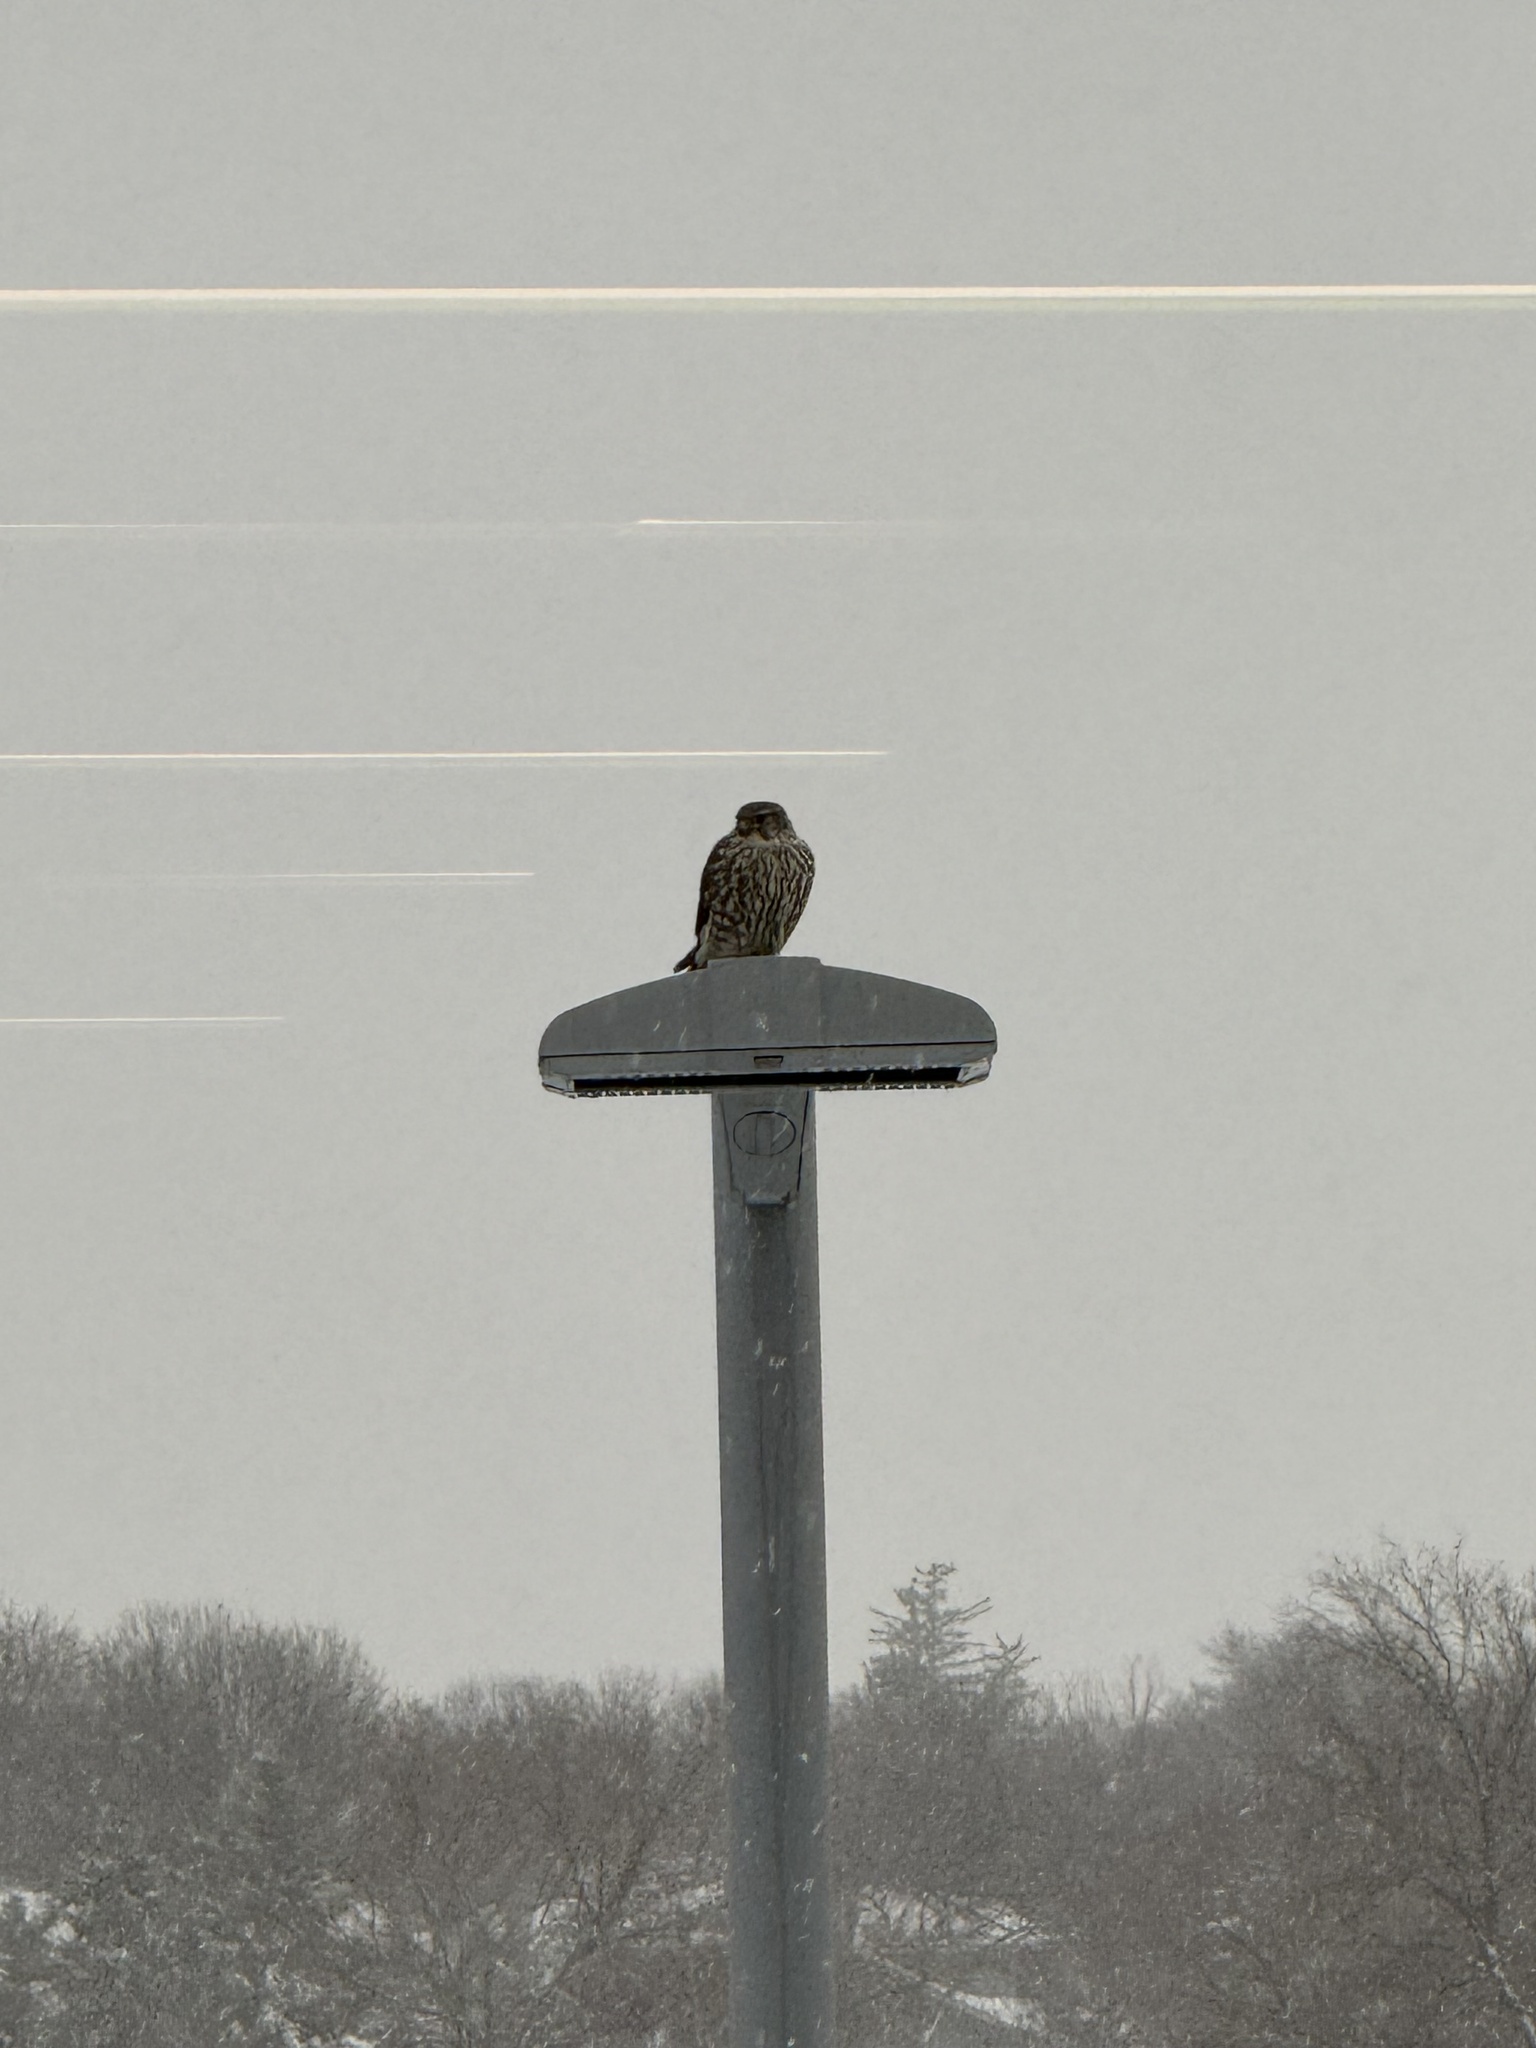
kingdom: Animalia
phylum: Chordata
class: Aves
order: Falconiformes
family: Falconidae
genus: Falco
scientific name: Falco columbarius
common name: Merlin
